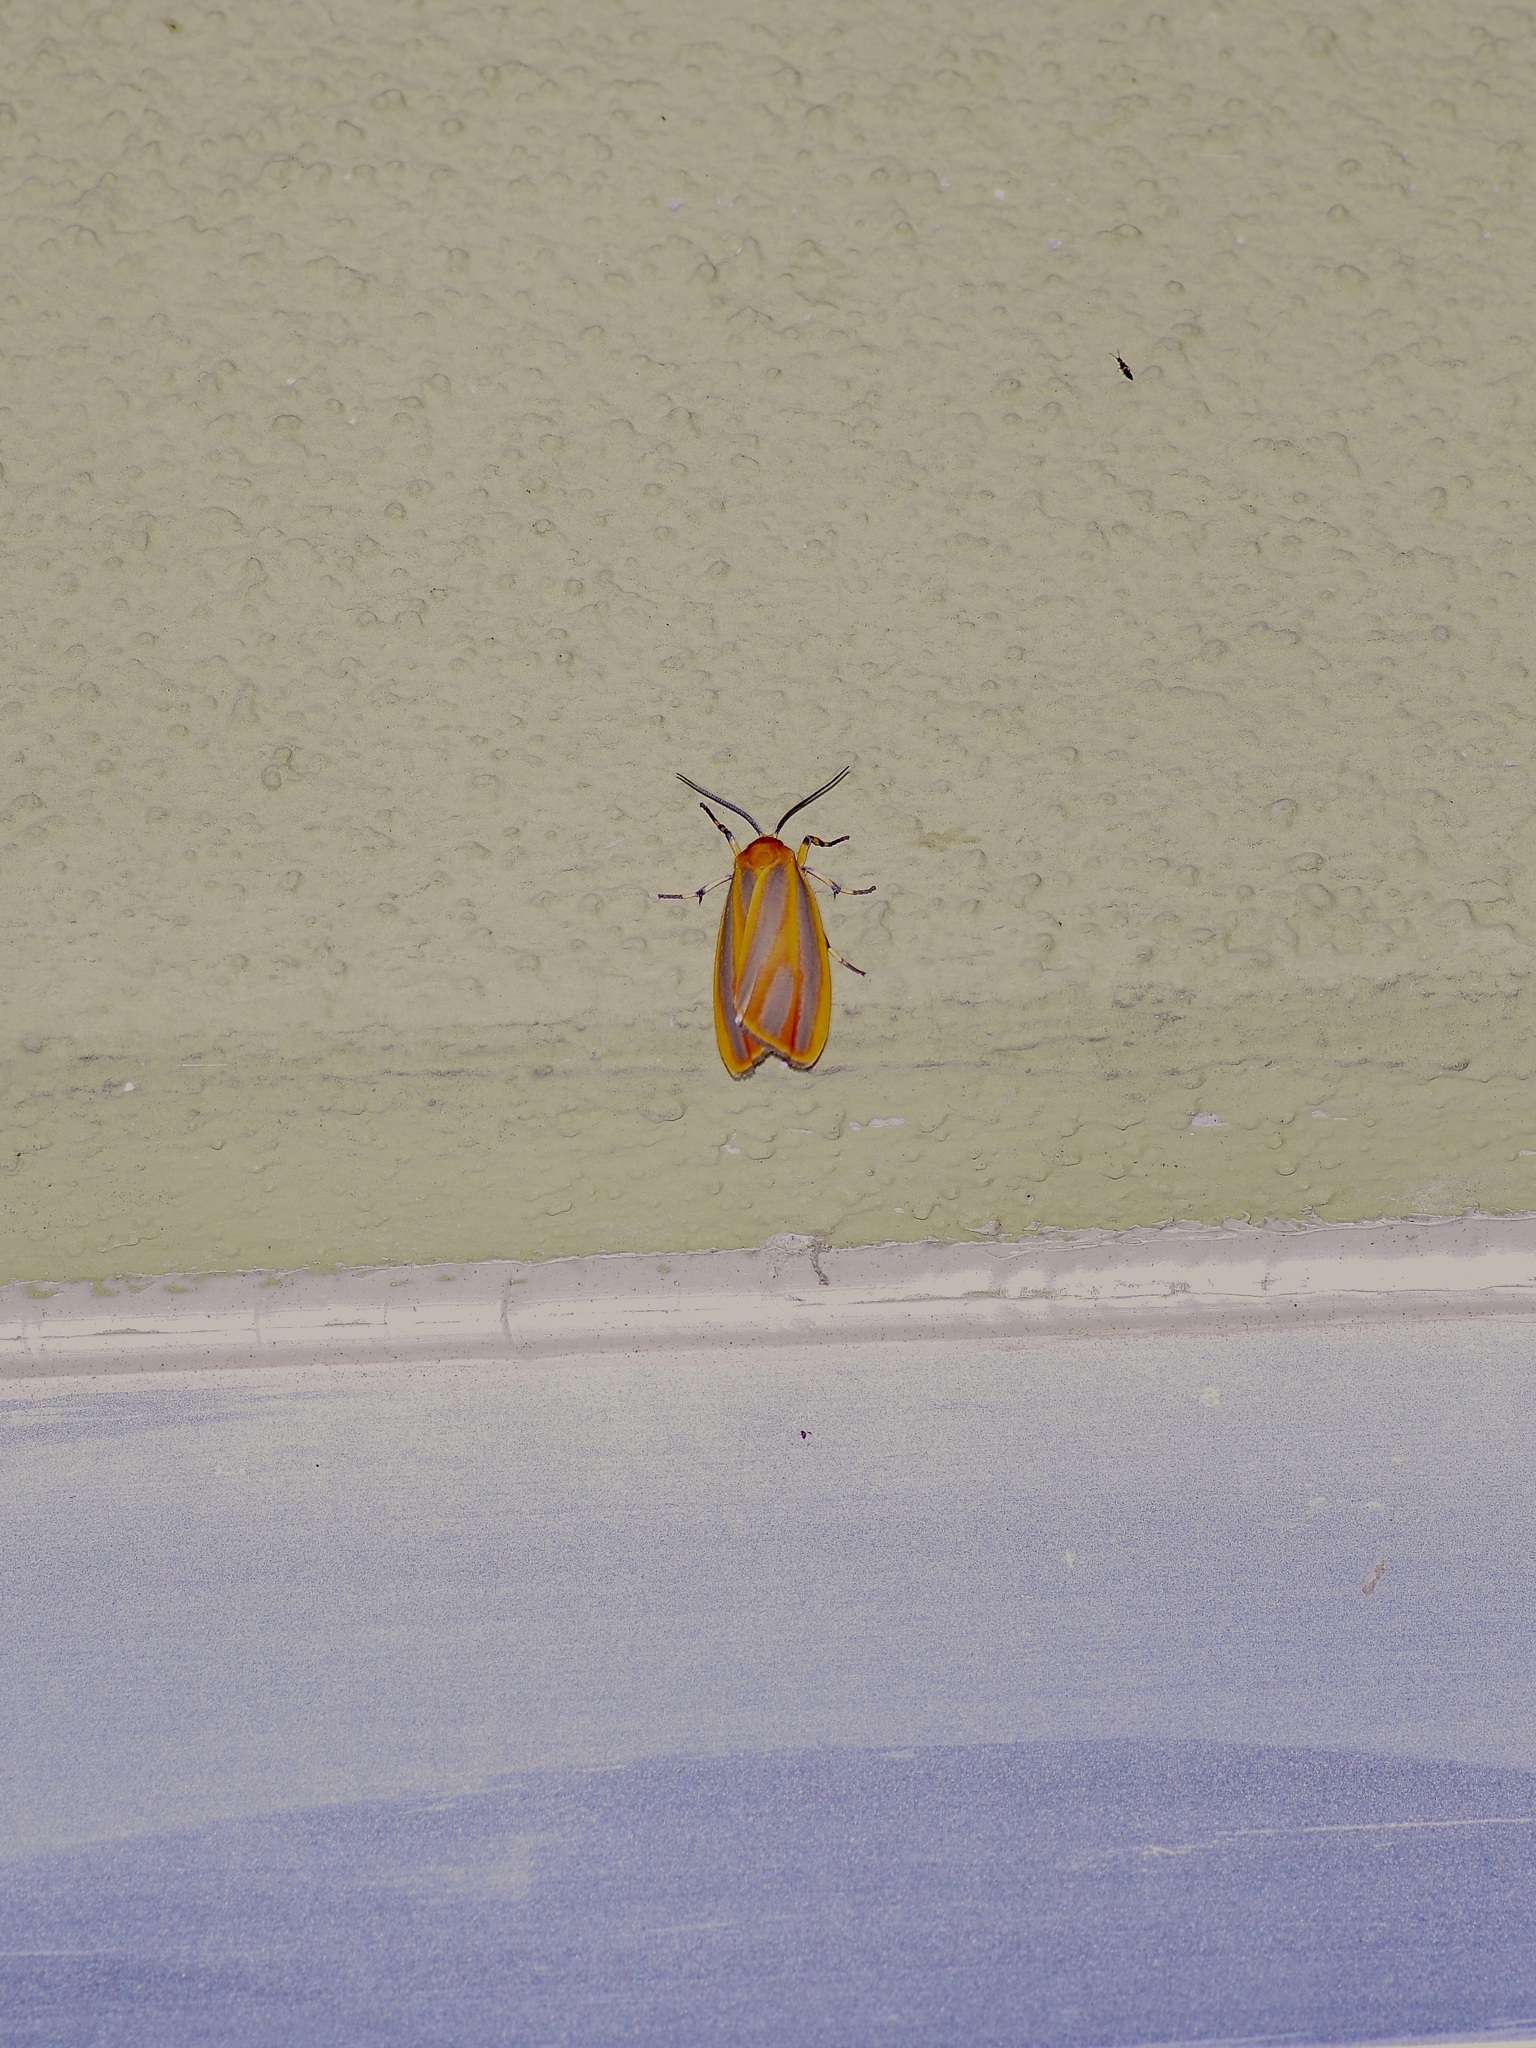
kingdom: Animalia
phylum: Arthropoda
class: Insecta
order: Lepidoptera
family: Erebidae
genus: Hypoprepia
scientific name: Hypoprepia fucosa
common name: Painted lichen moth
